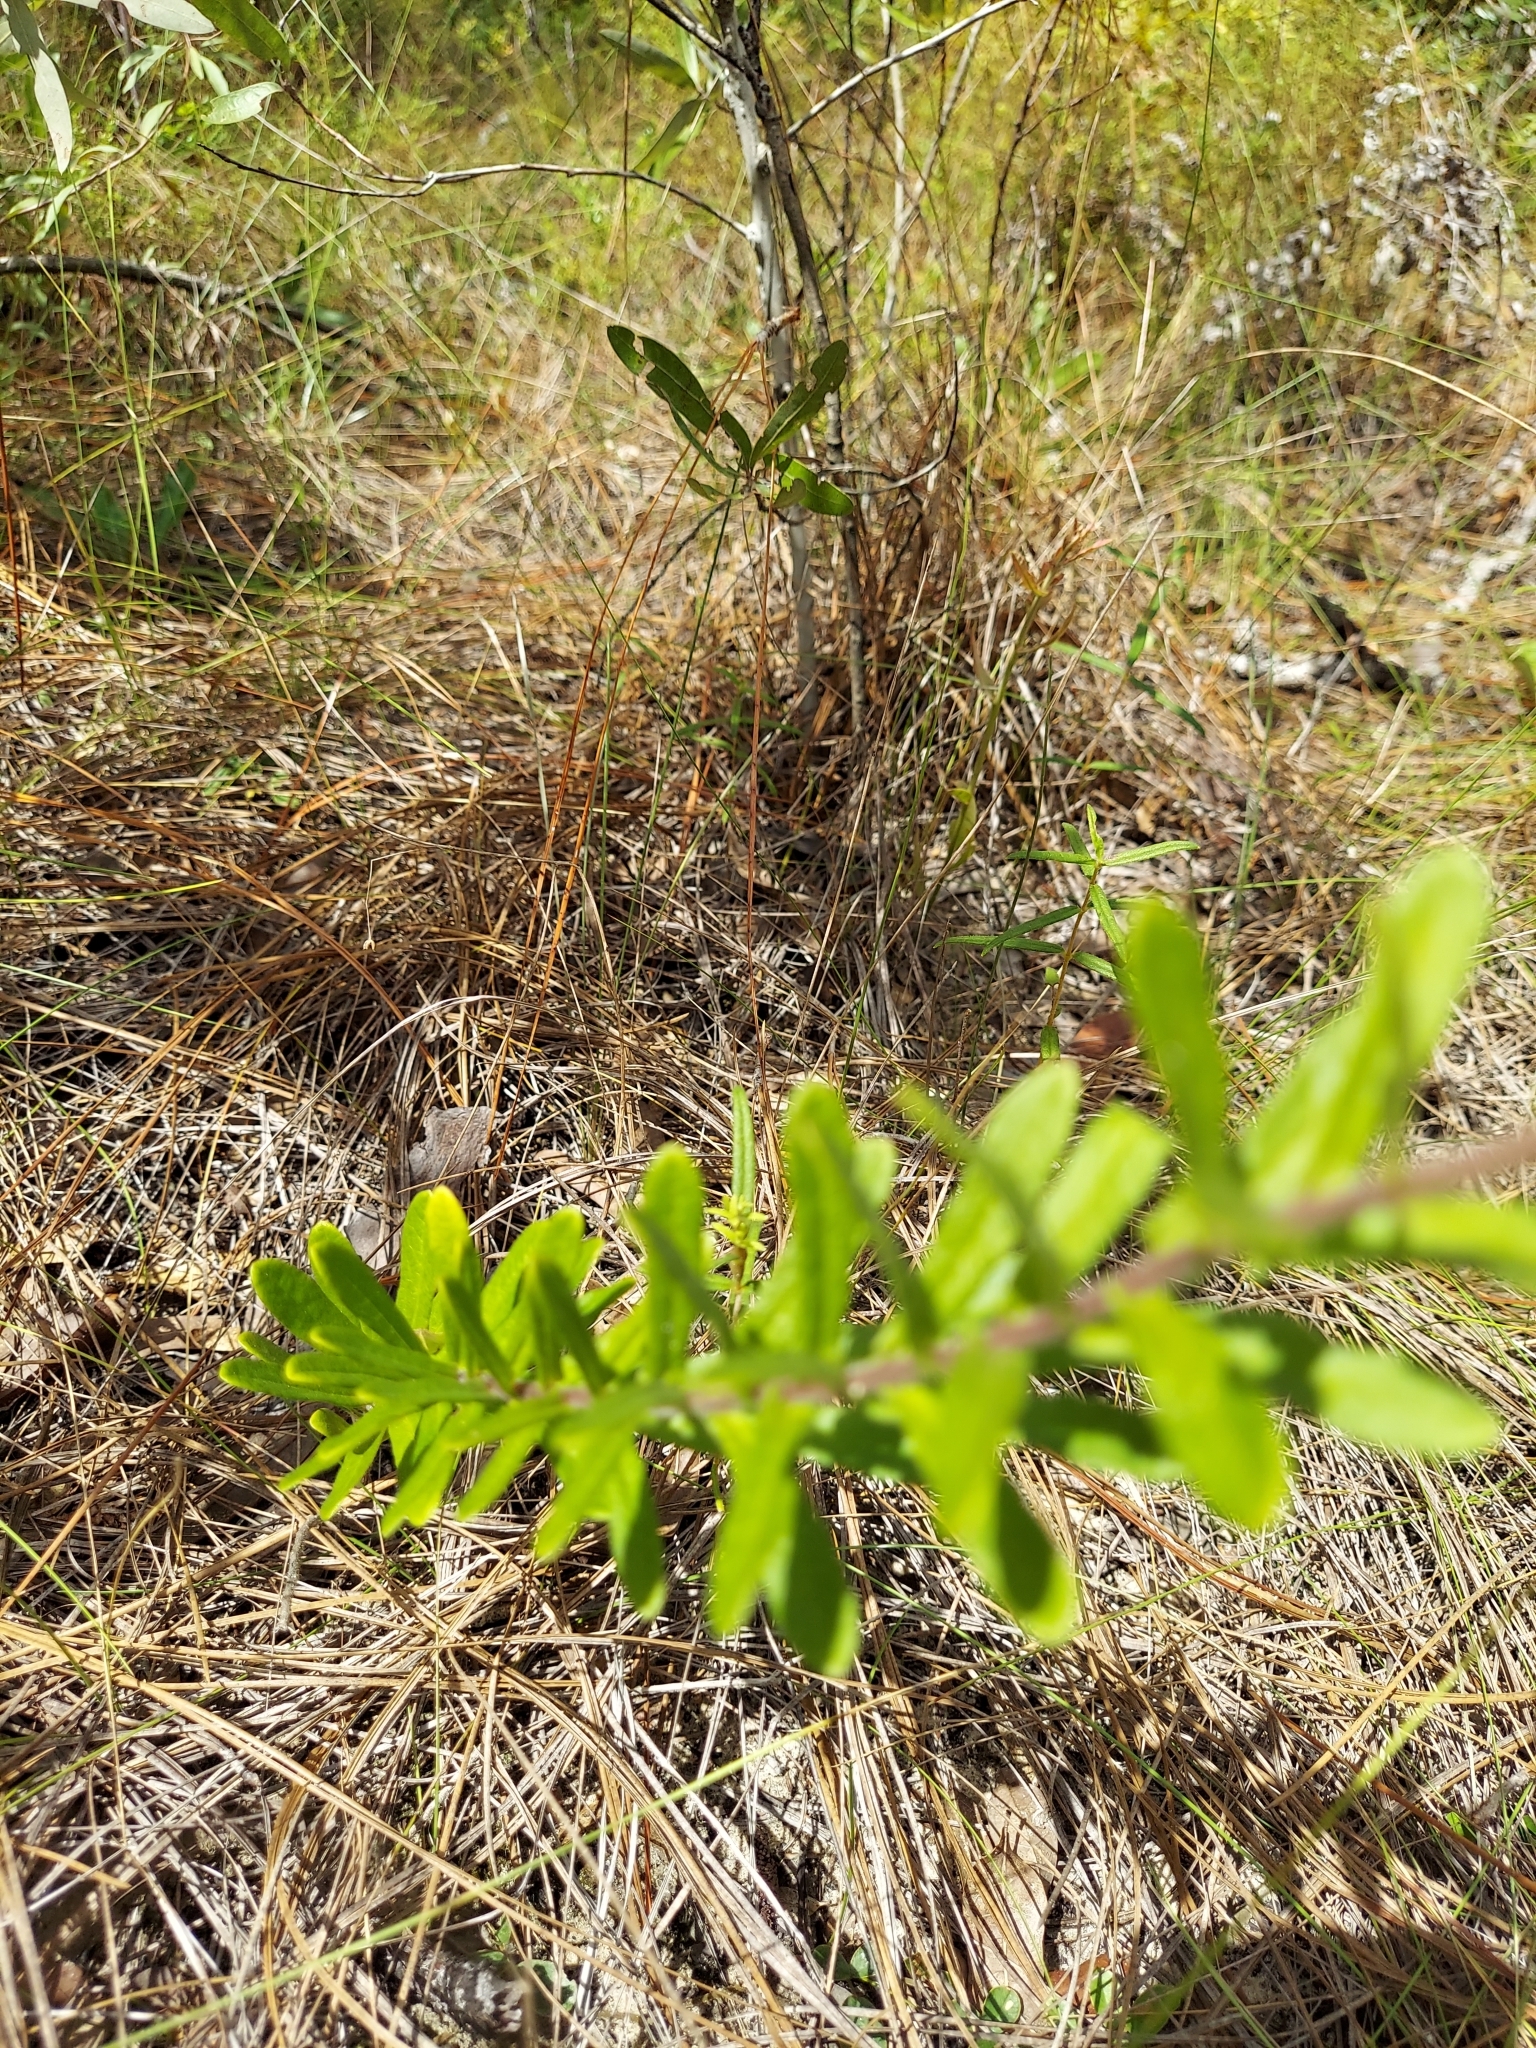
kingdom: Plantae
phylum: Tracheophyta
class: Magnoliopsida
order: Gentianales
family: Apocynaceae
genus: Asclepias
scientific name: Asclepias tuberosa
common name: Butterfly milkweed
